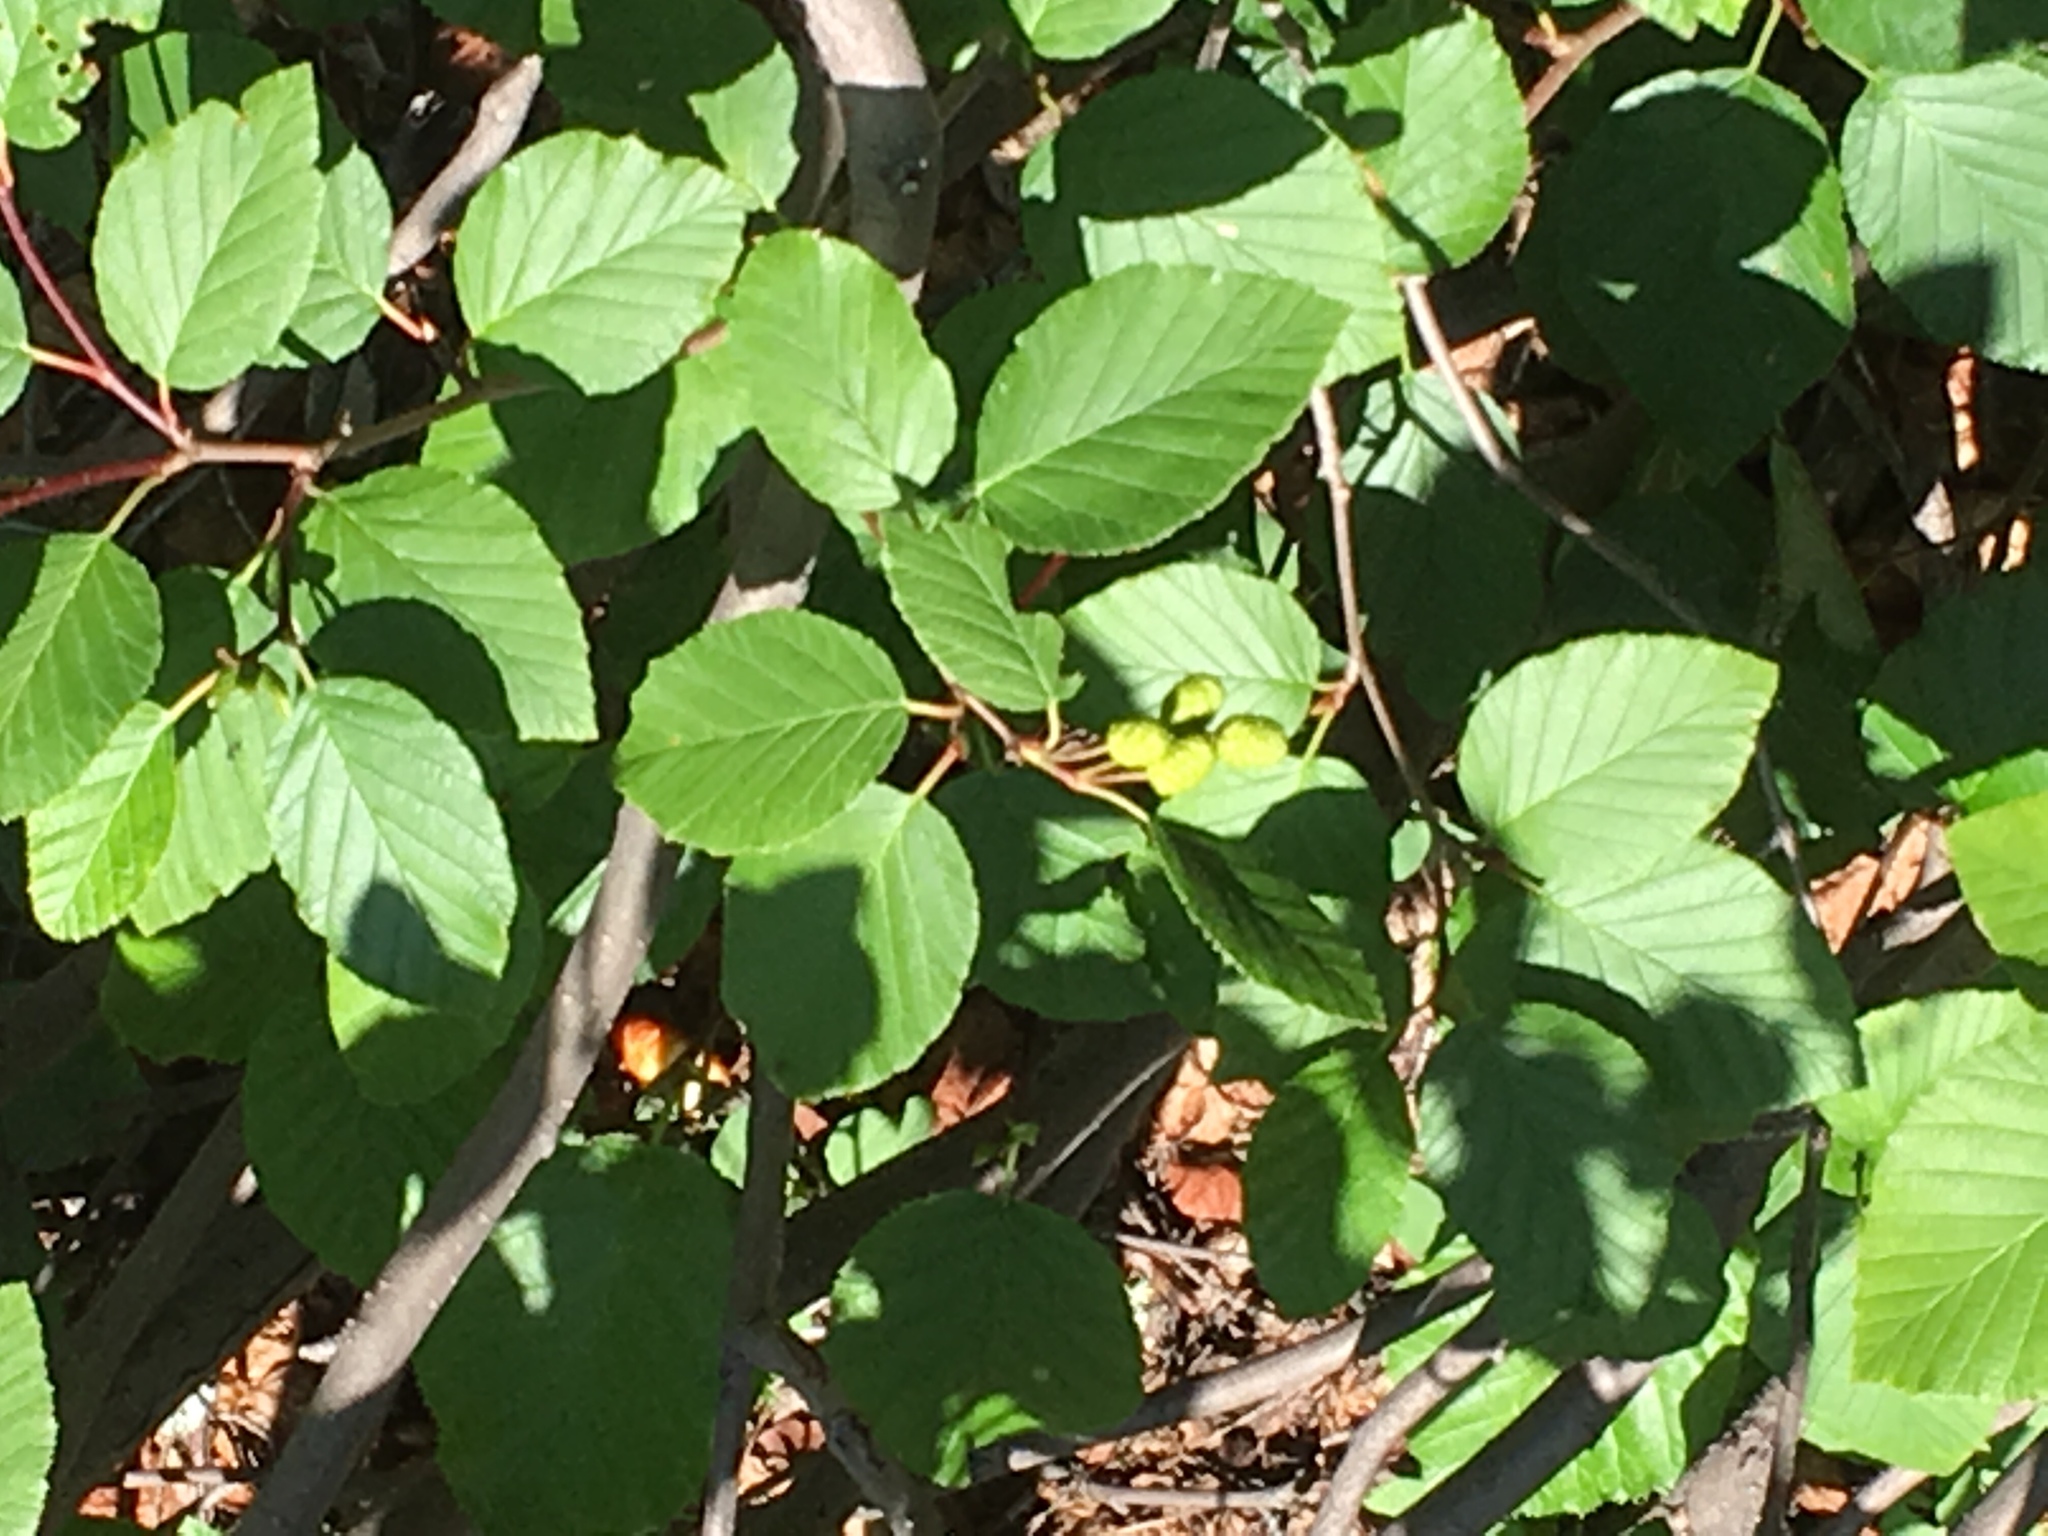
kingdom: Plantae
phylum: Tracheophyta
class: Magnoliopsida
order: Fagales
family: Betulaceae
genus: Alnus
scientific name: Alnus alnobetula
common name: Green alder
